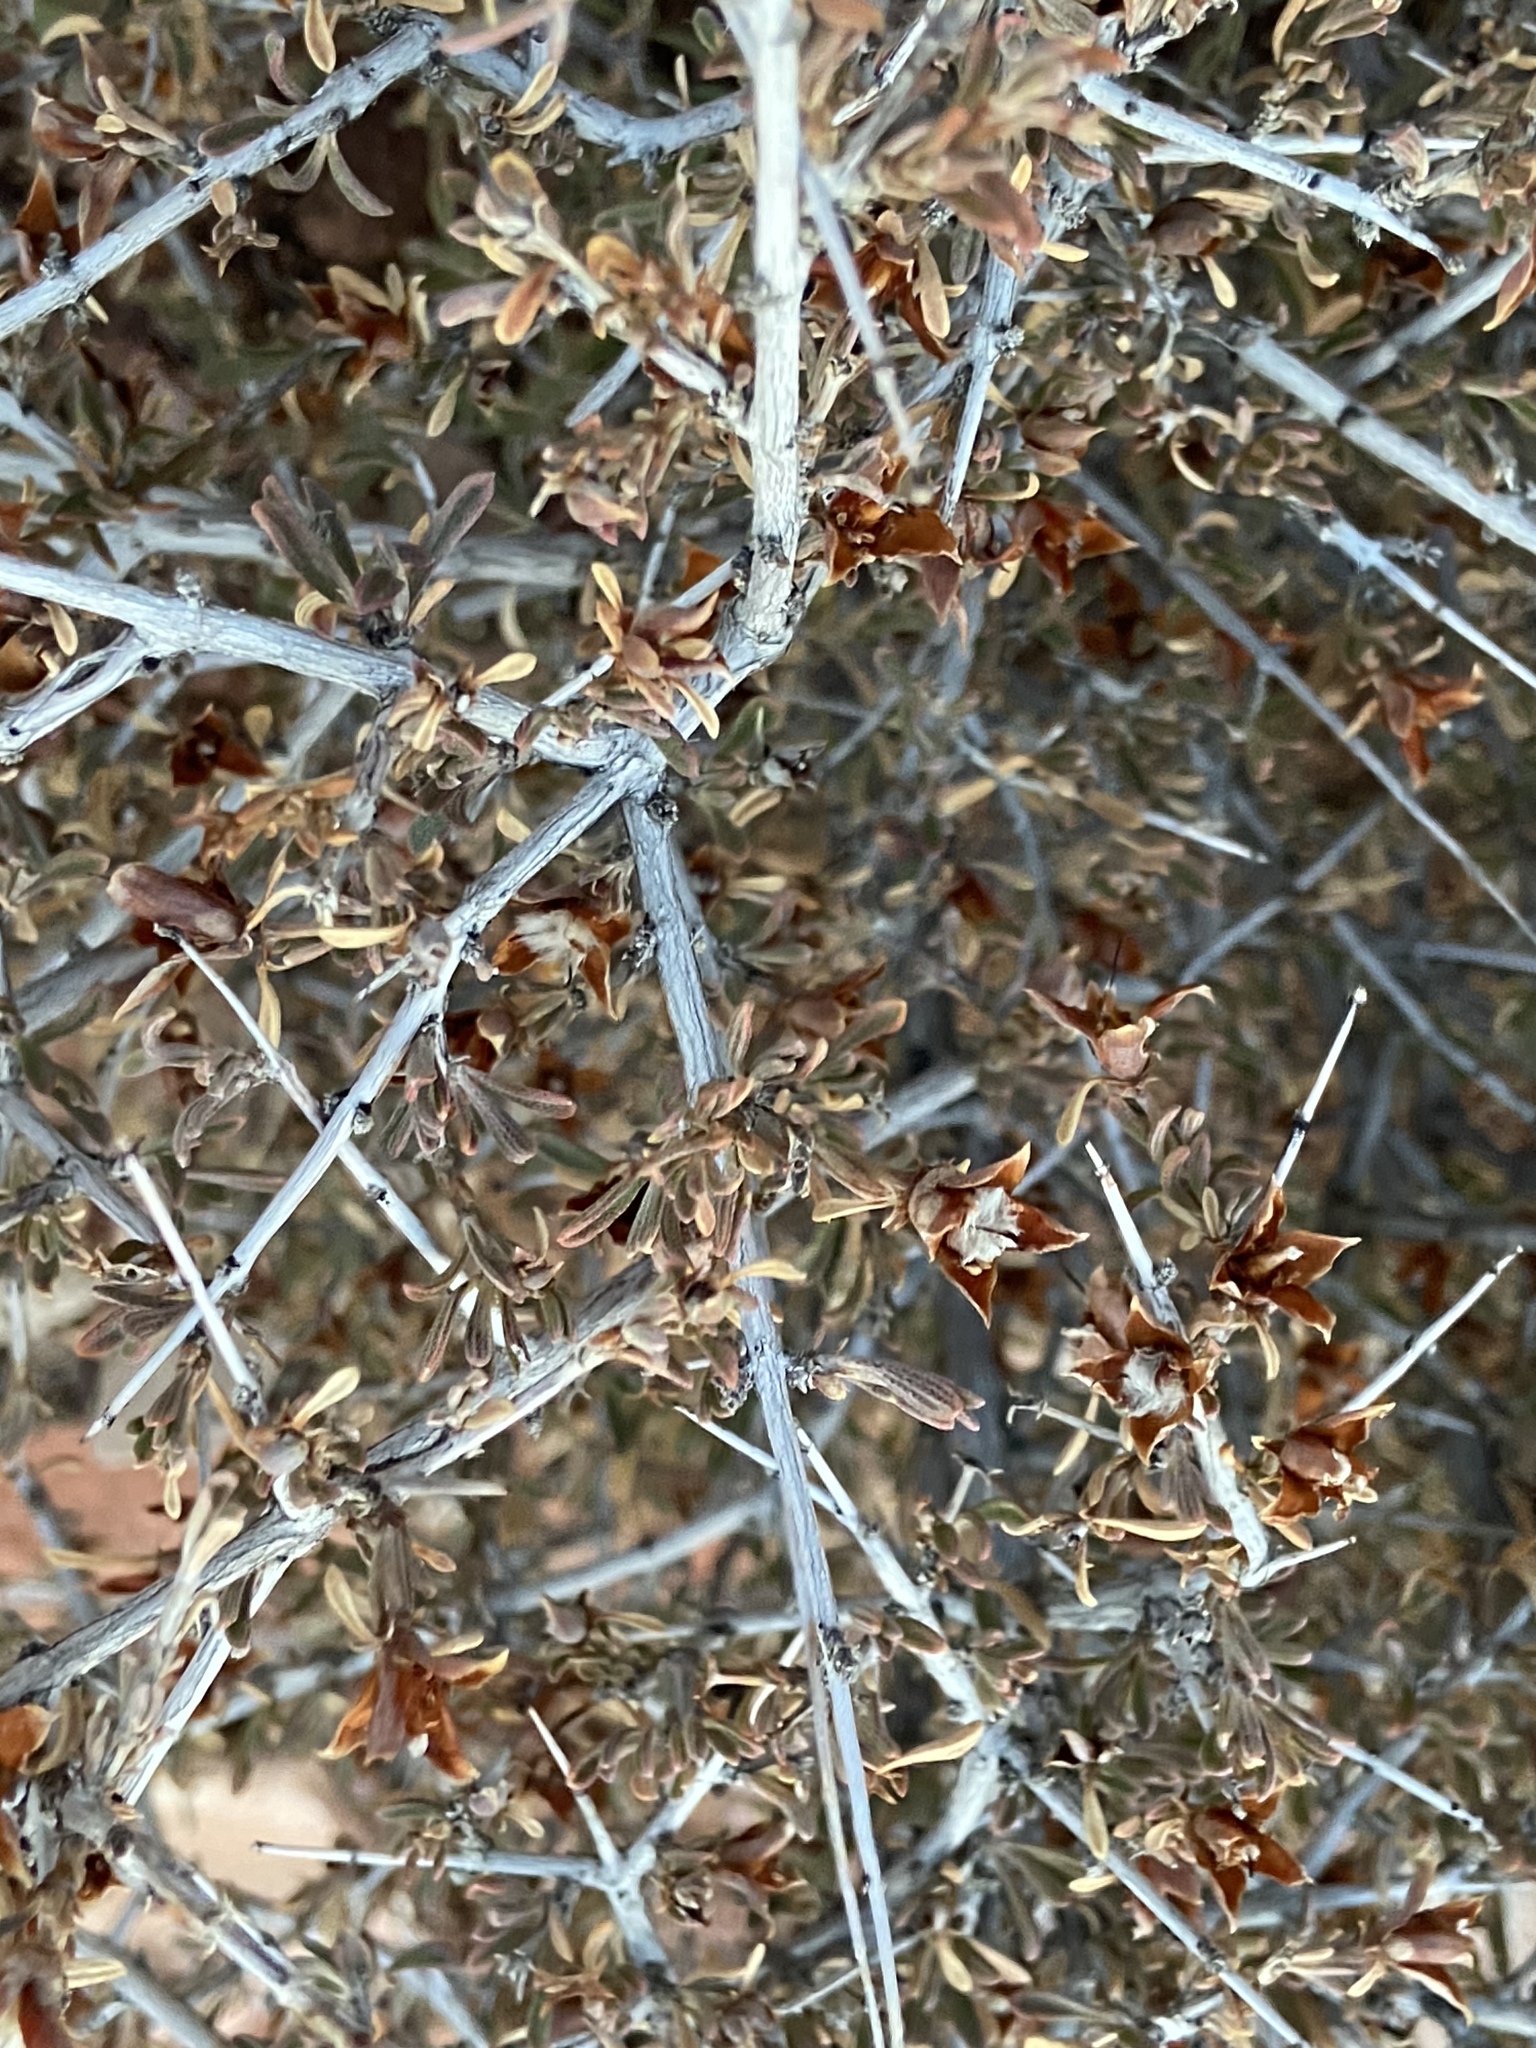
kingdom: Plantae
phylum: Tracheophyta
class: Magnoliopsida
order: Rosales
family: Rosaceae
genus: Coleogyne
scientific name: Coleogyne ramosissima
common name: Blackbrush
